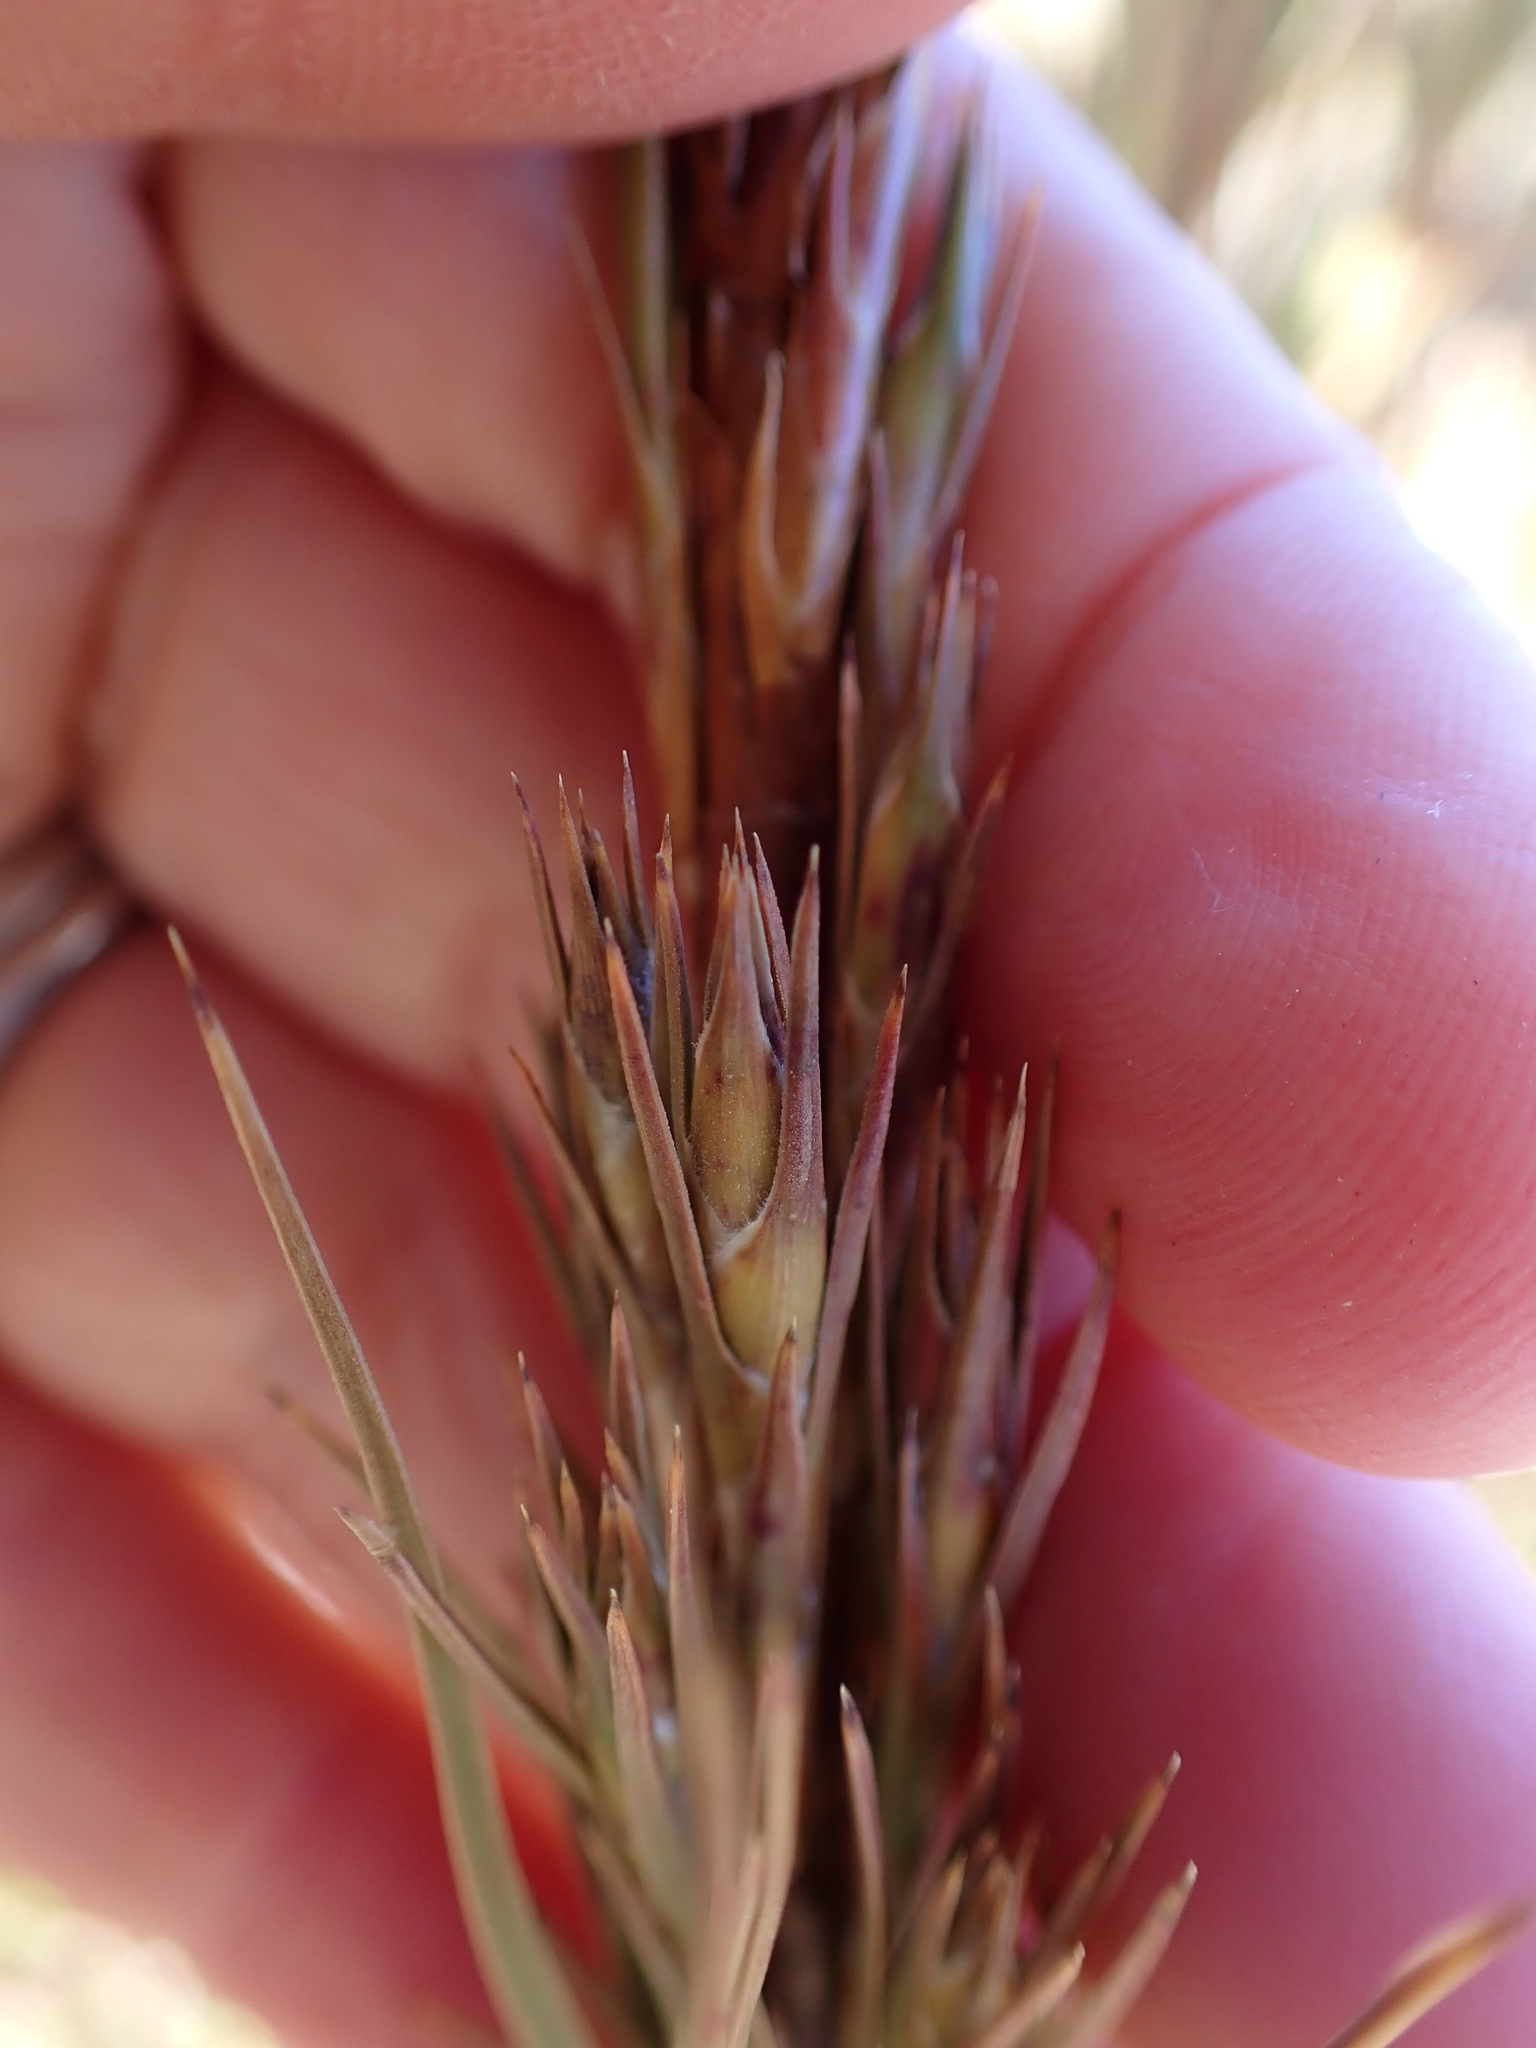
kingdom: Plantae
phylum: Tracheophyta
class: Magnoliopsida
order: Ericales
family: Ericaceae
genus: Dracophyllum
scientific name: Dracophyllum rosmarinifolium
